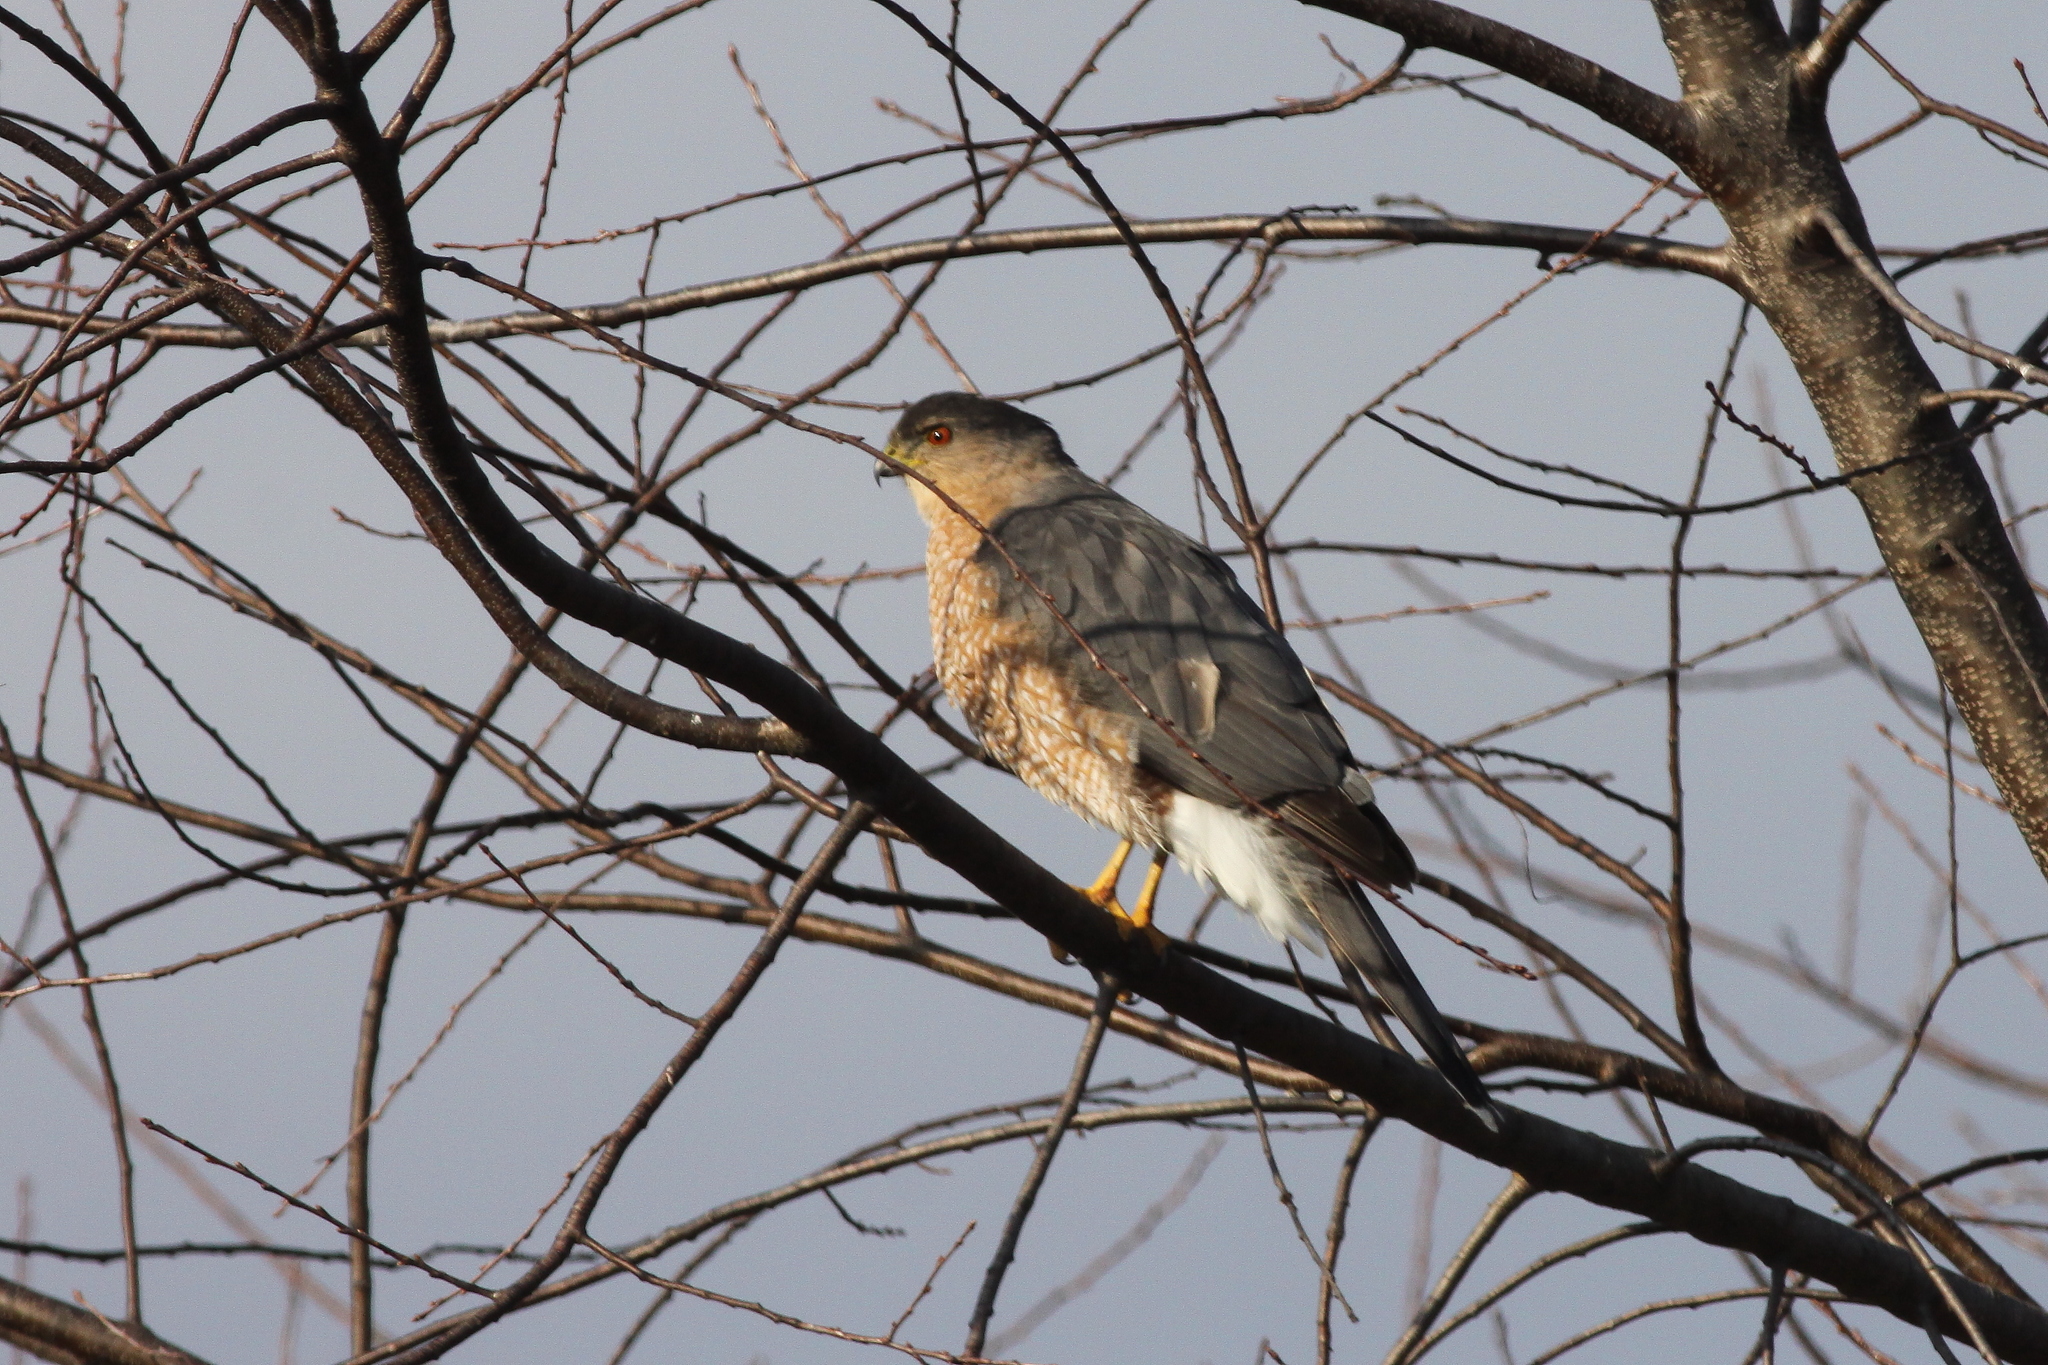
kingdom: Animalia
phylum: Chordata
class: Aves
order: Accipitriformes
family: Accipitridae
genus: Accipiter
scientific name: Accipiter cooperii
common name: Cooper's hawk
